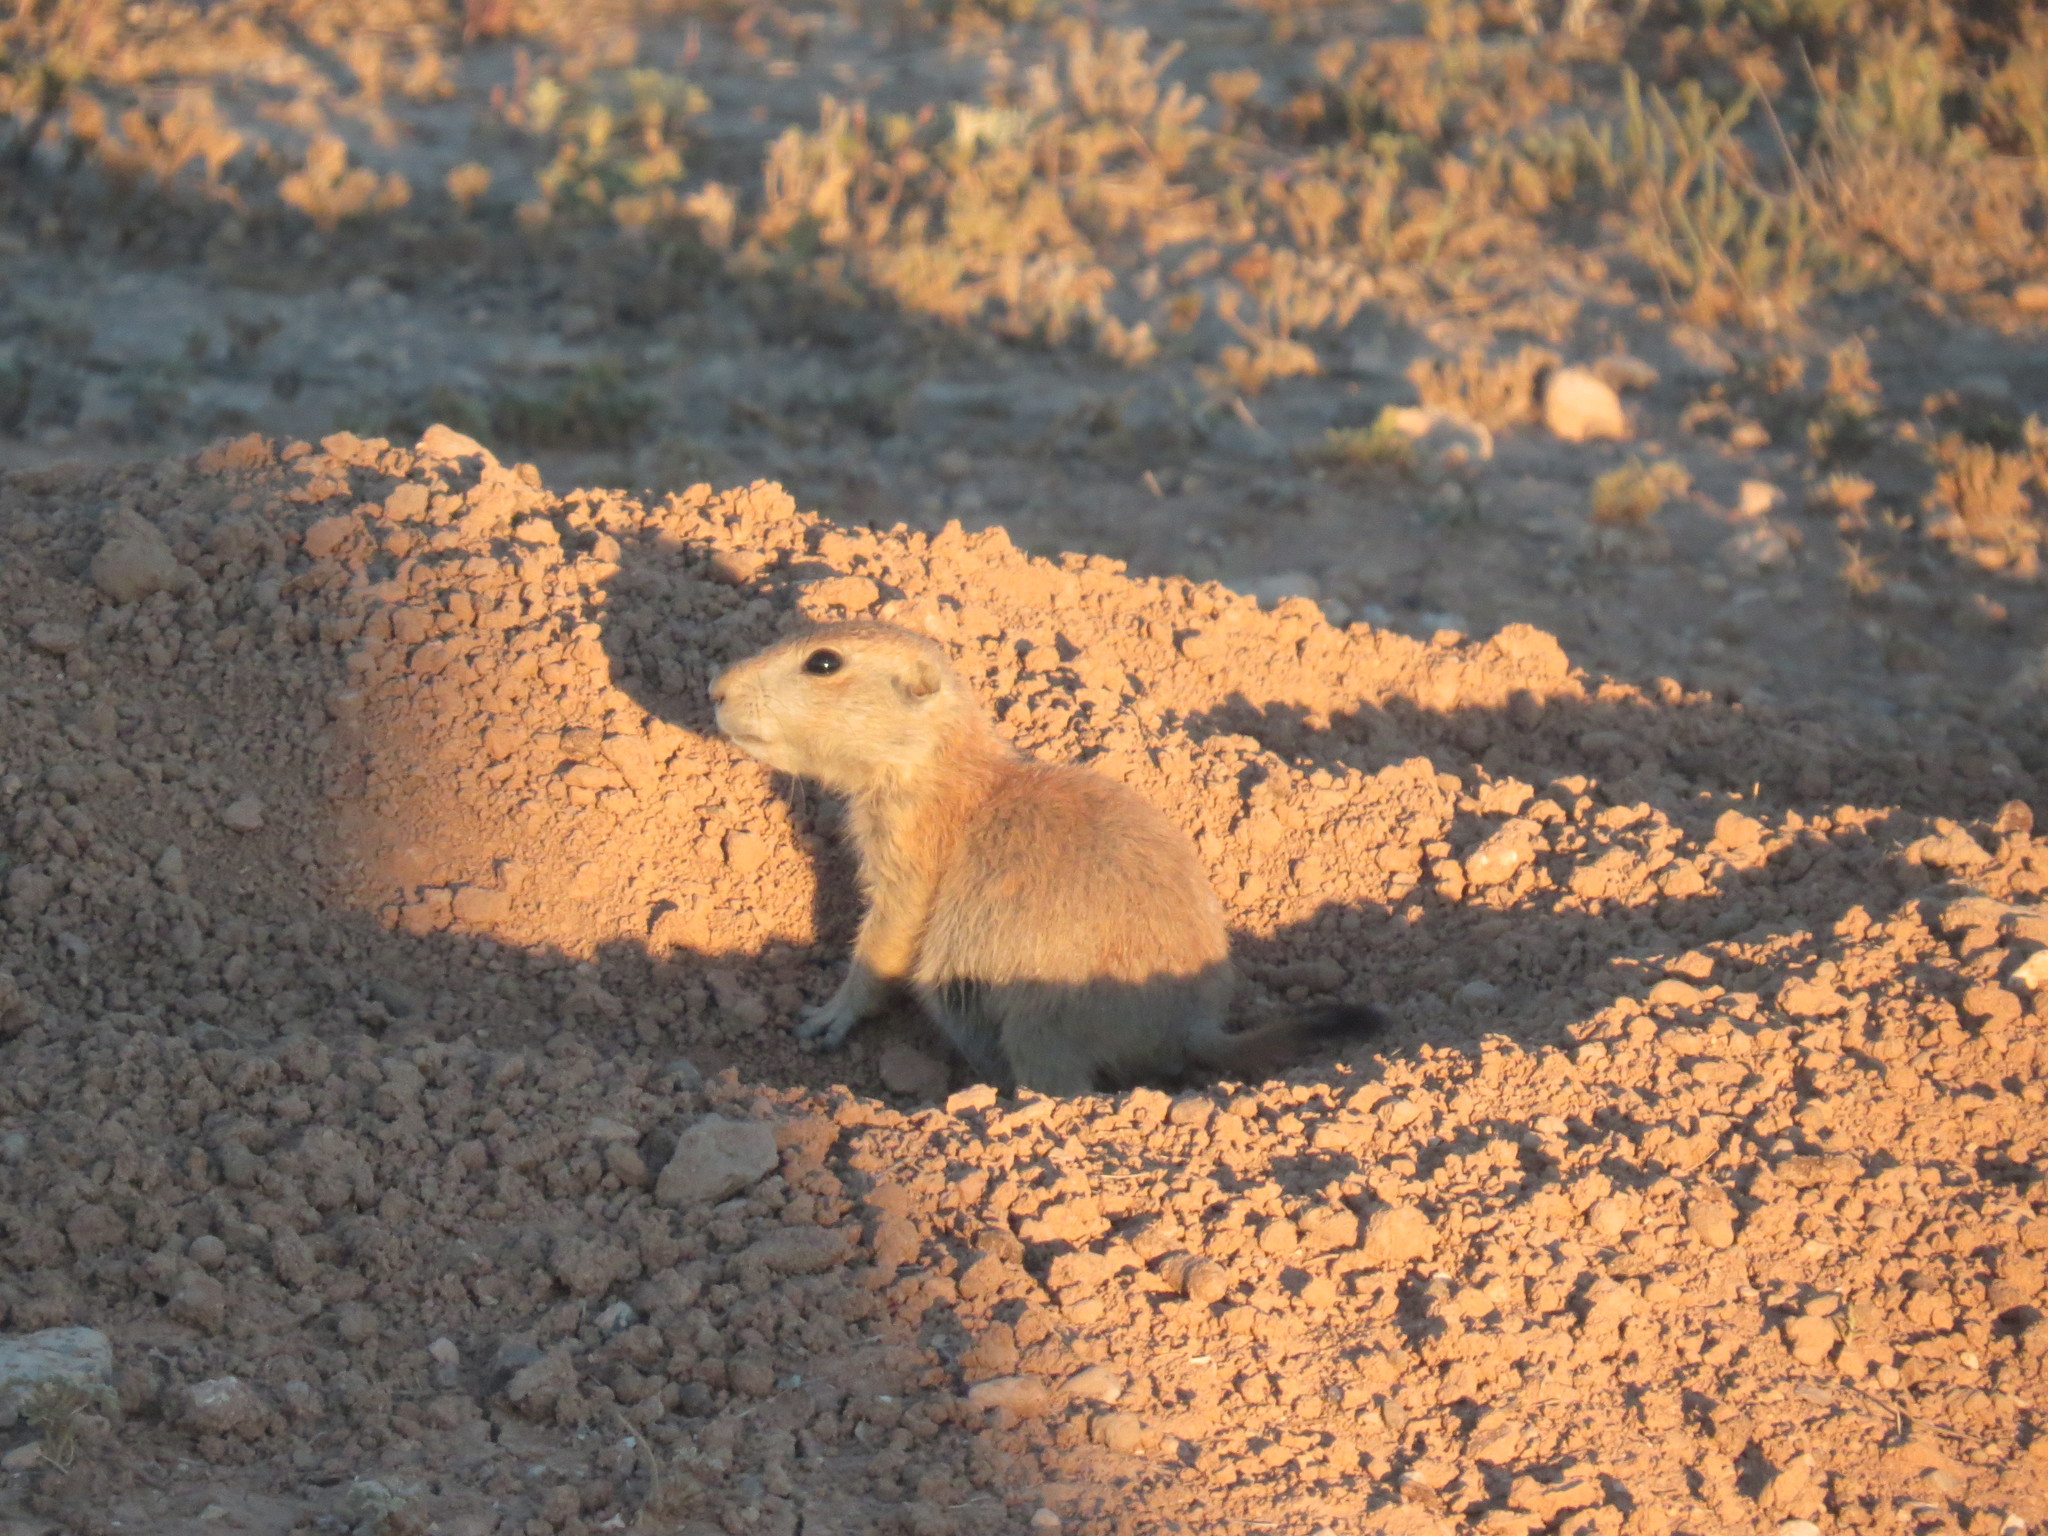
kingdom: Animalia
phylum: Chordata
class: Mammalia
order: Rodentia
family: Sciuridae
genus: Cynomys
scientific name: Cynomys ludovicianus
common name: Black-tailed prairie dog
